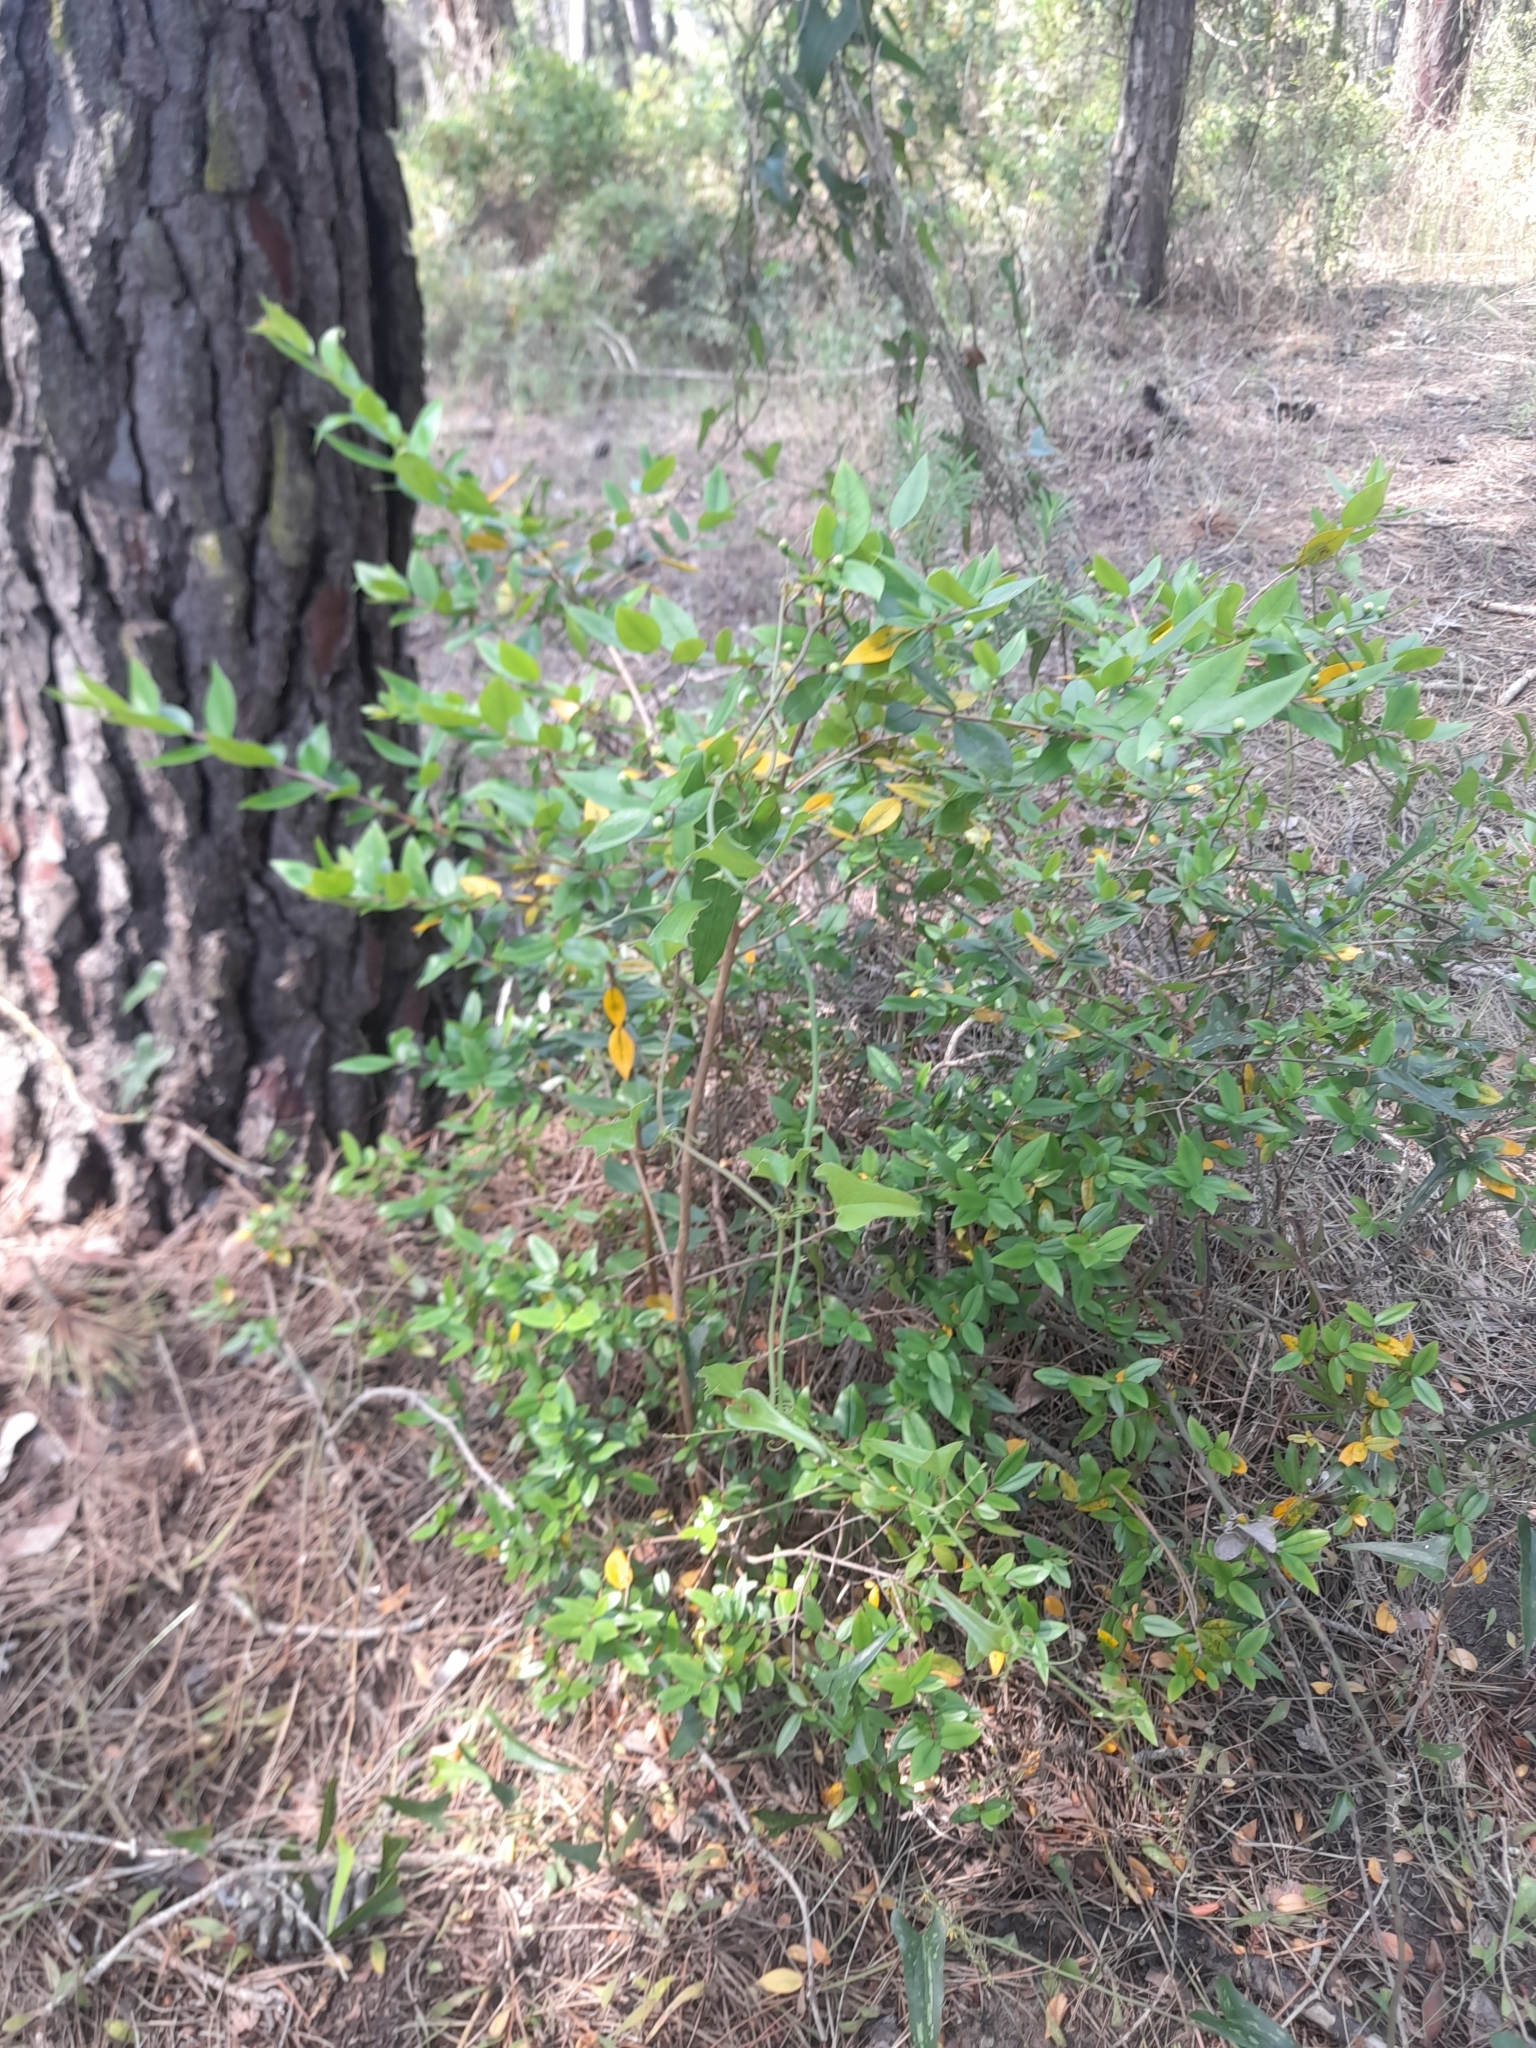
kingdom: Plantae
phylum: Tracheophyta
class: Magnoliopsida
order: Myrtales
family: Myrtaceae
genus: Myrtus
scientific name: Myrtus communis
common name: Myrtle
